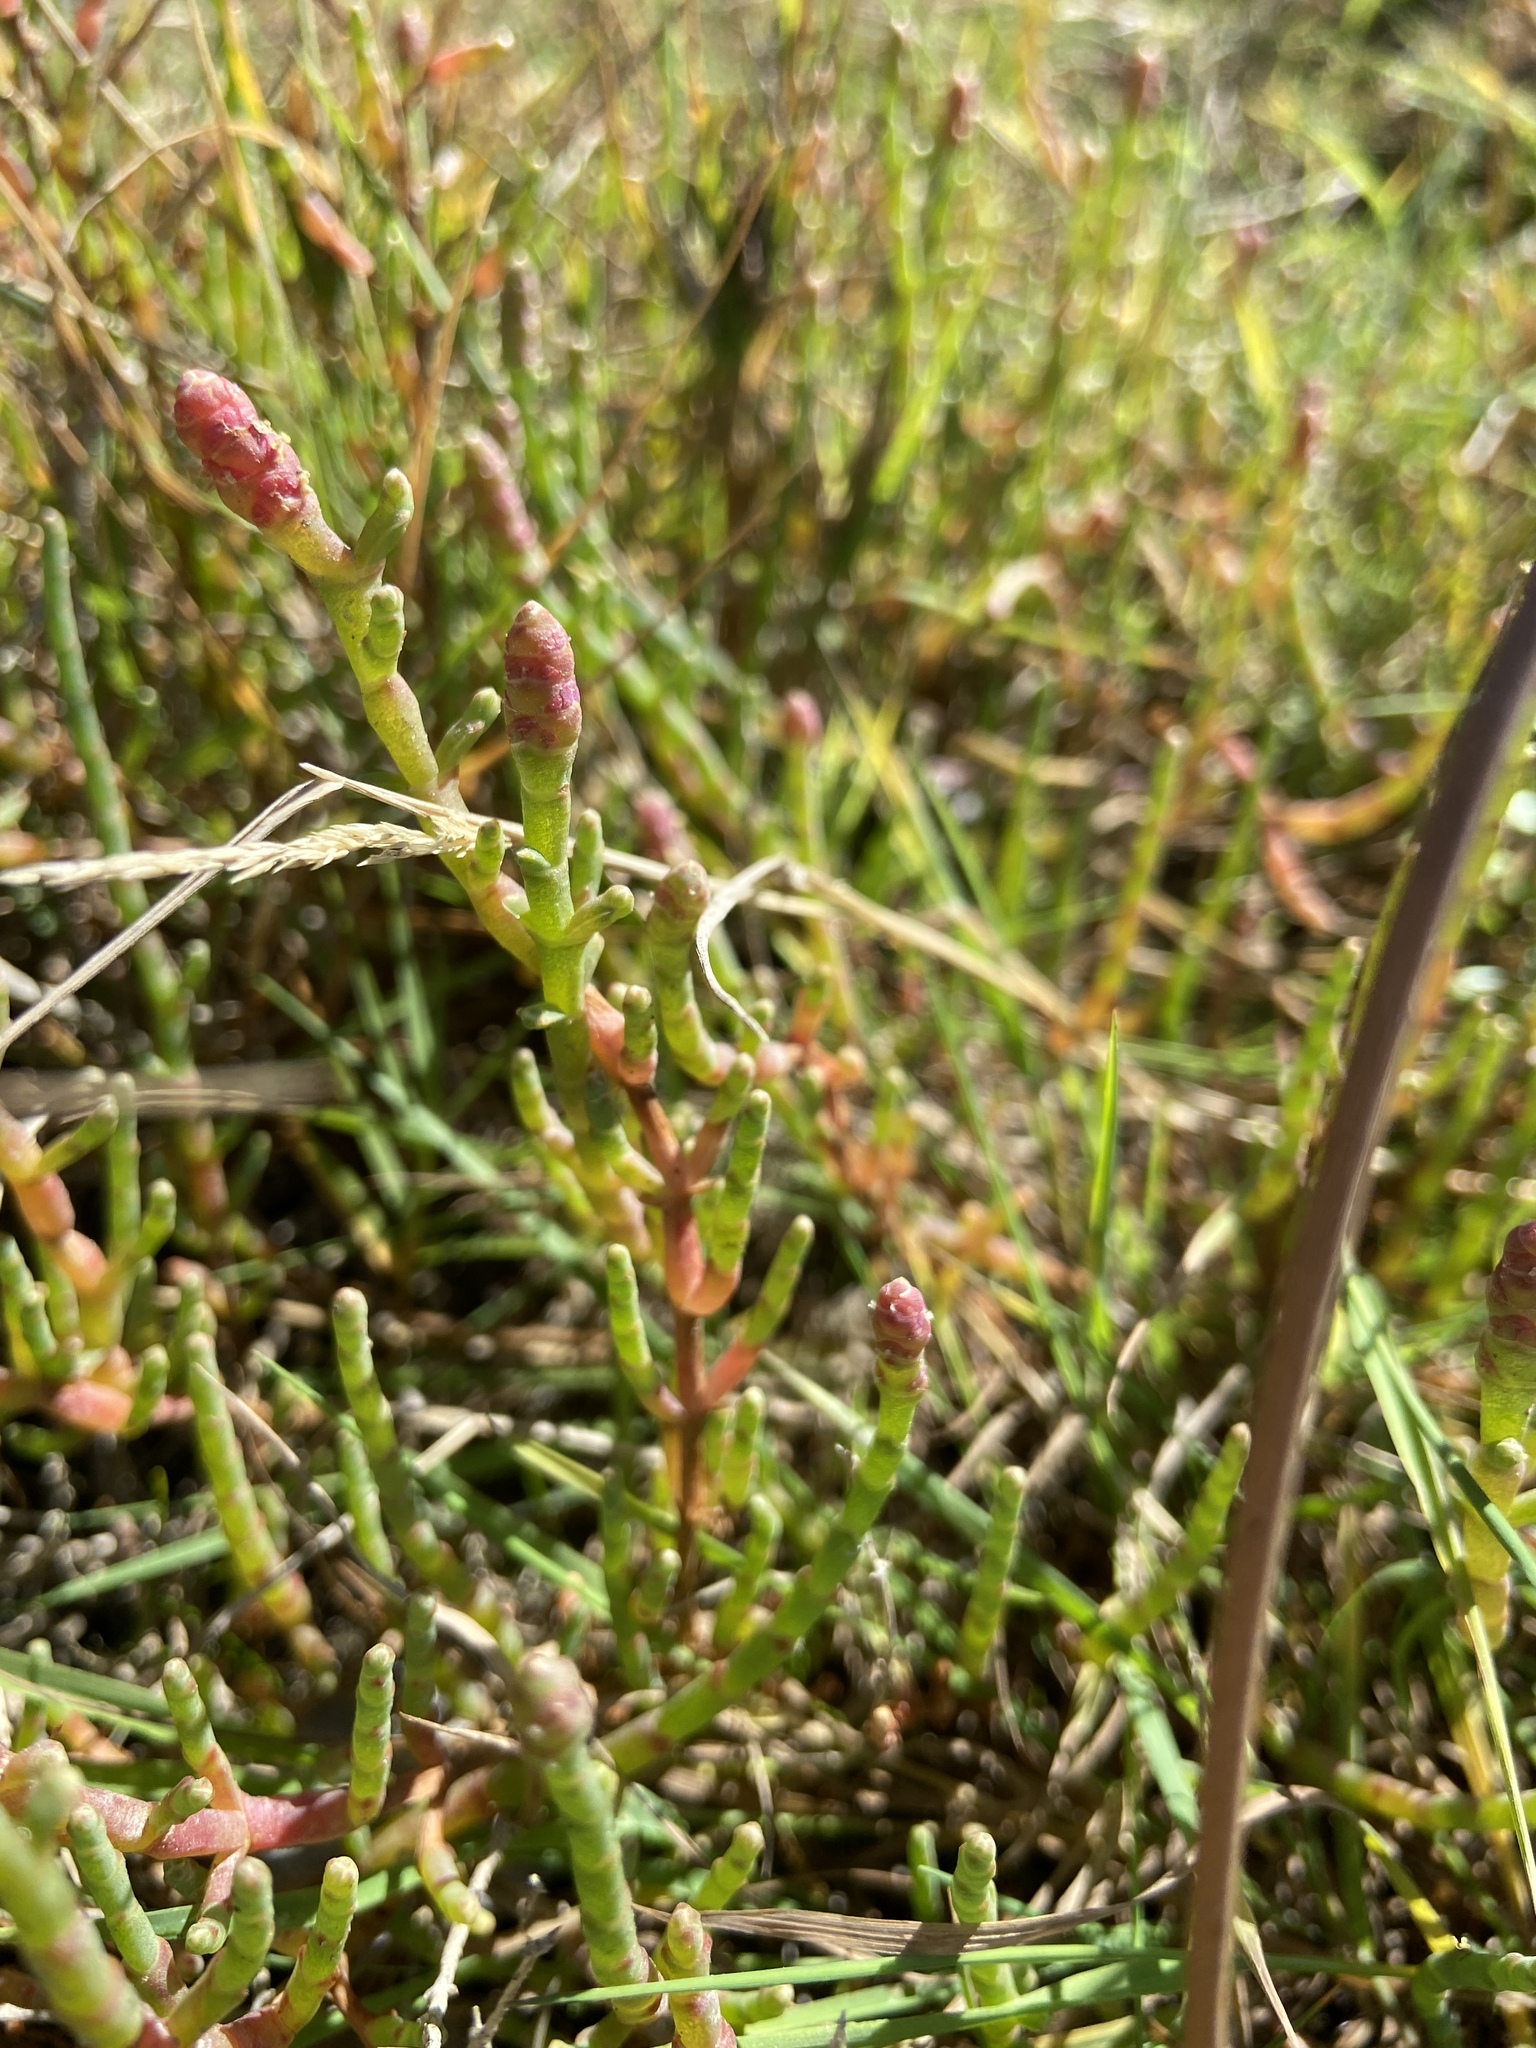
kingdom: Plantae
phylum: Tracheophyta
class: Magnoliopsida
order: Caryophyllales
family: Amaranthaceae
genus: Salicornia
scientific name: Salicornia pacifica
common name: Pacific glasswort
